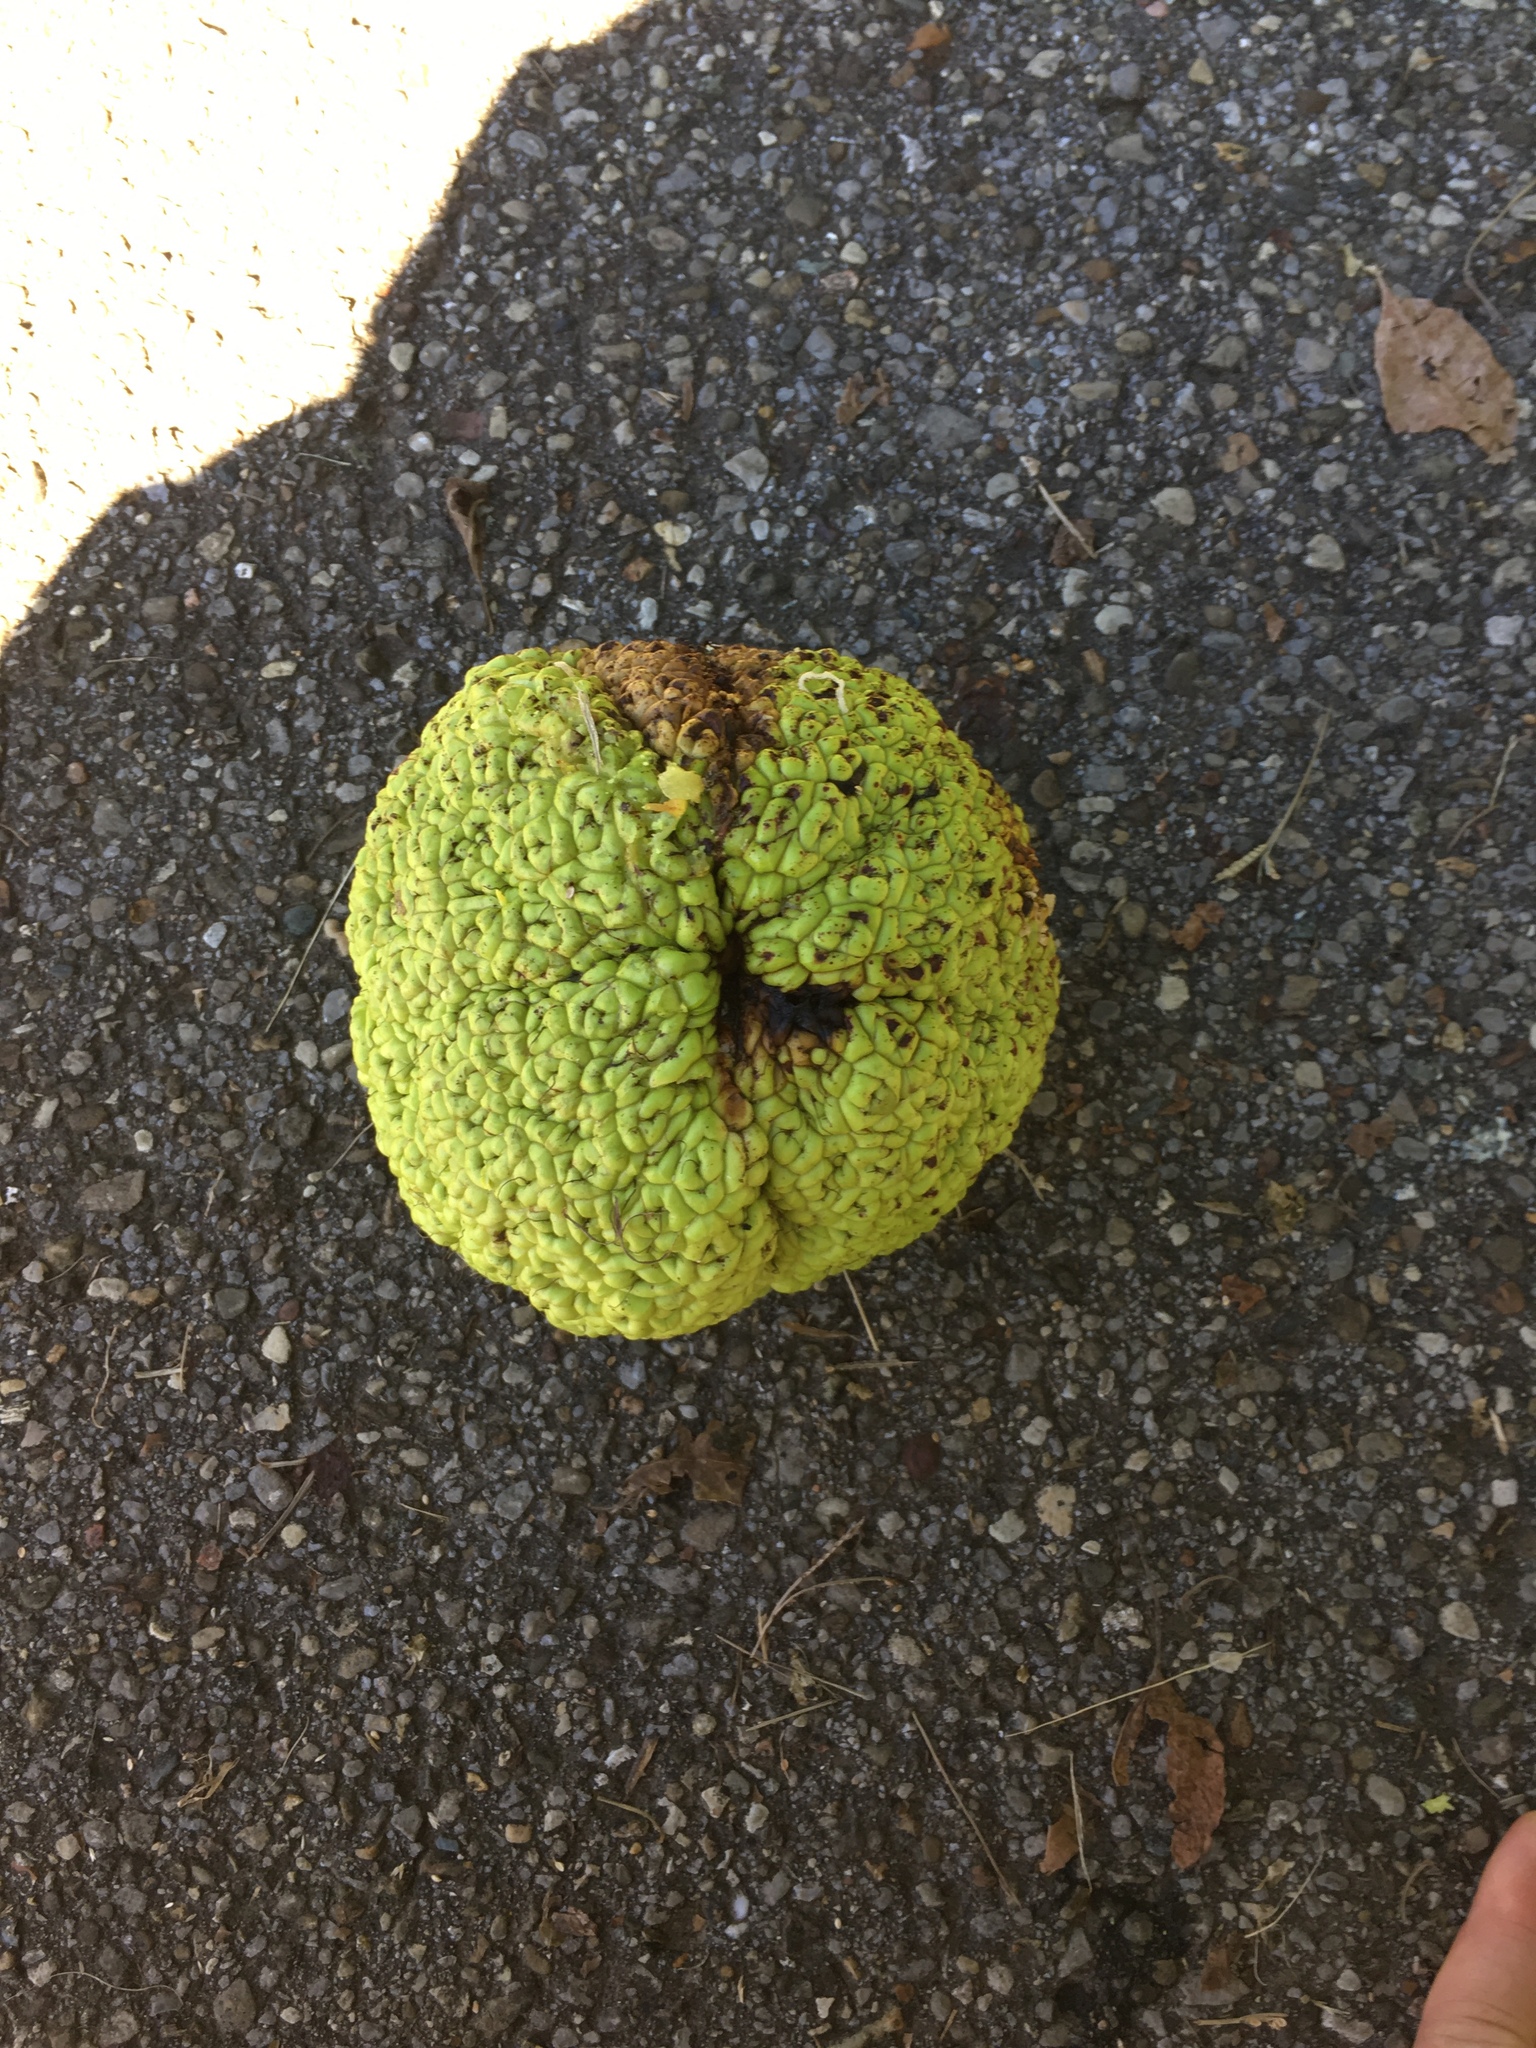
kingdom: Plantae
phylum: Tracheophyta
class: Magnoliopsida
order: Rosales
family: Moraceae
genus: Maclura
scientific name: Maclura pomifera
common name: Osage-orange
